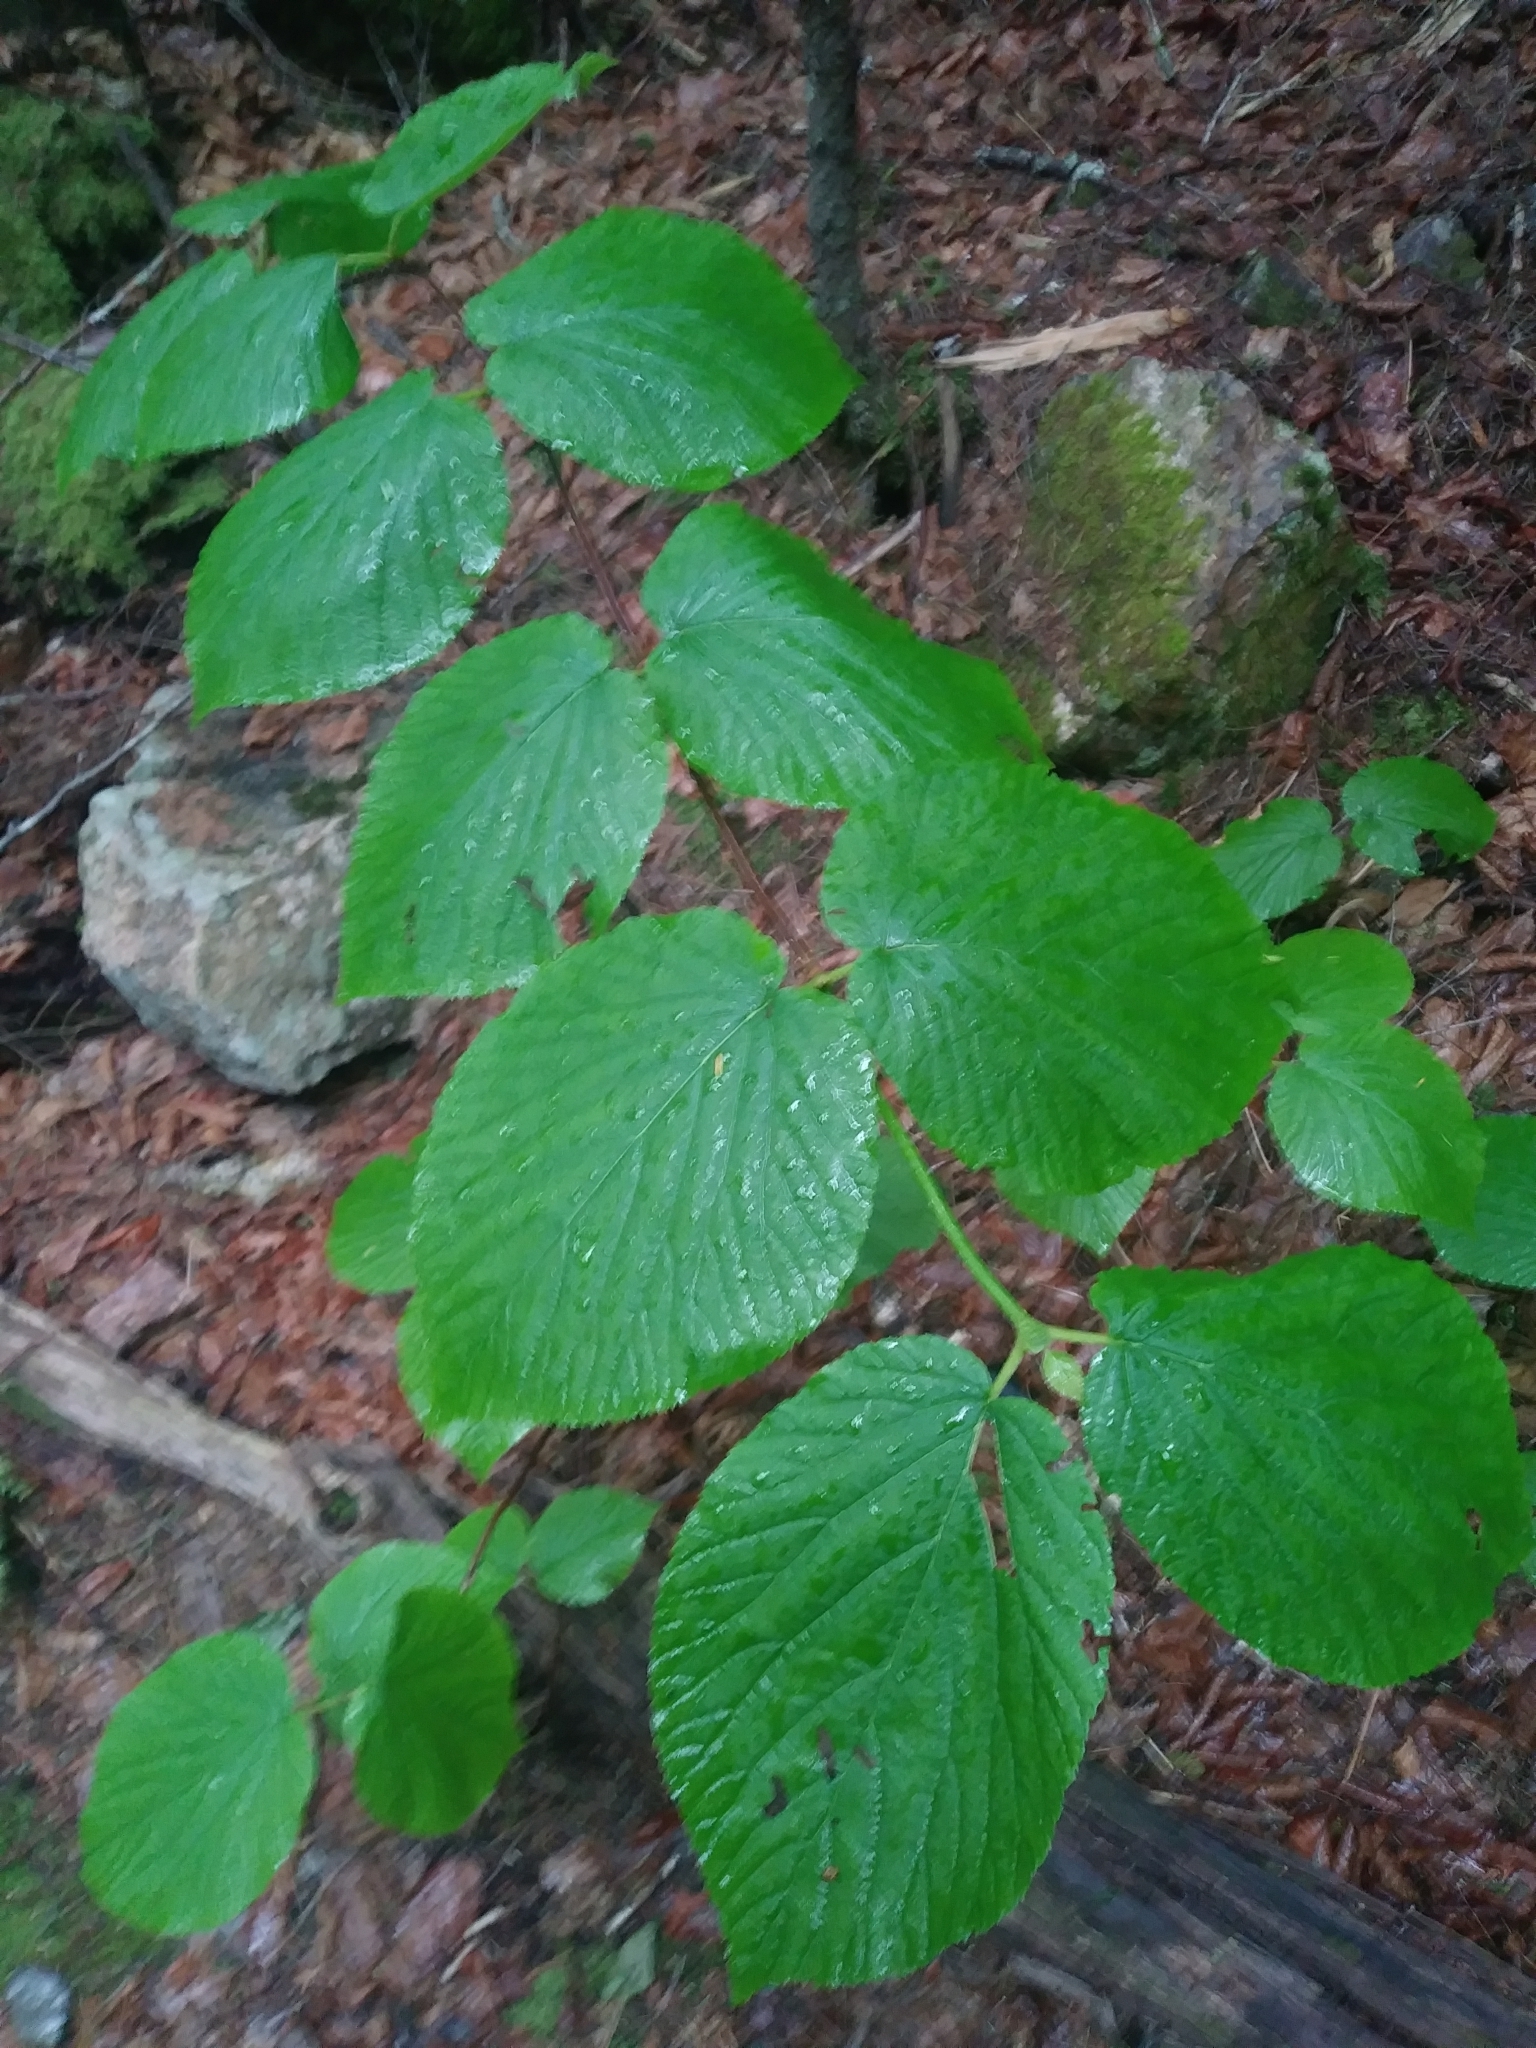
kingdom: Plantae
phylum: Tracheophyta
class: Magnoliopsida
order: Dipsacales
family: Viburnaceae
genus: Viburnum
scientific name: Viburnum lantanoides
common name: Hobblebush
